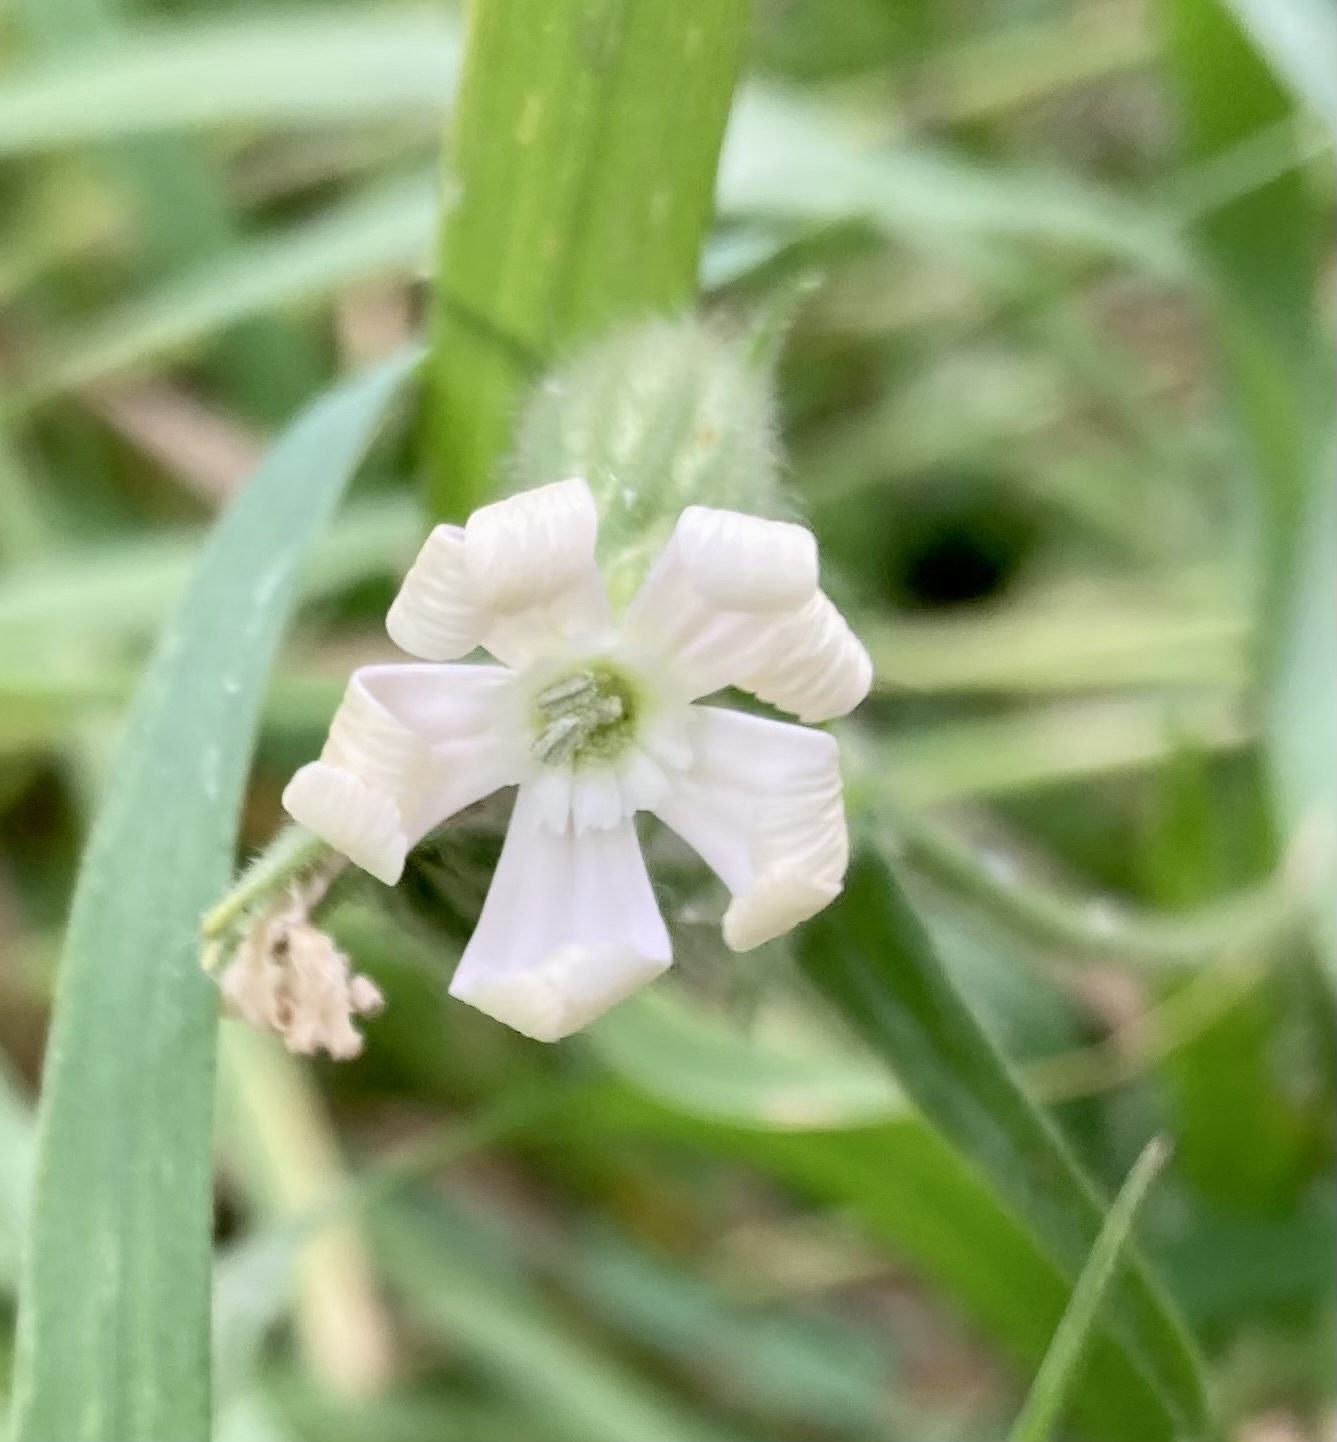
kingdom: Plantae
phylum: Tracheophyta
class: Magnoliopsida
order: Caryophyllales
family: Caryophyllaceae
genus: Silene
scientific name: Silene noctiflora
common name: Night-flowering catchfly
